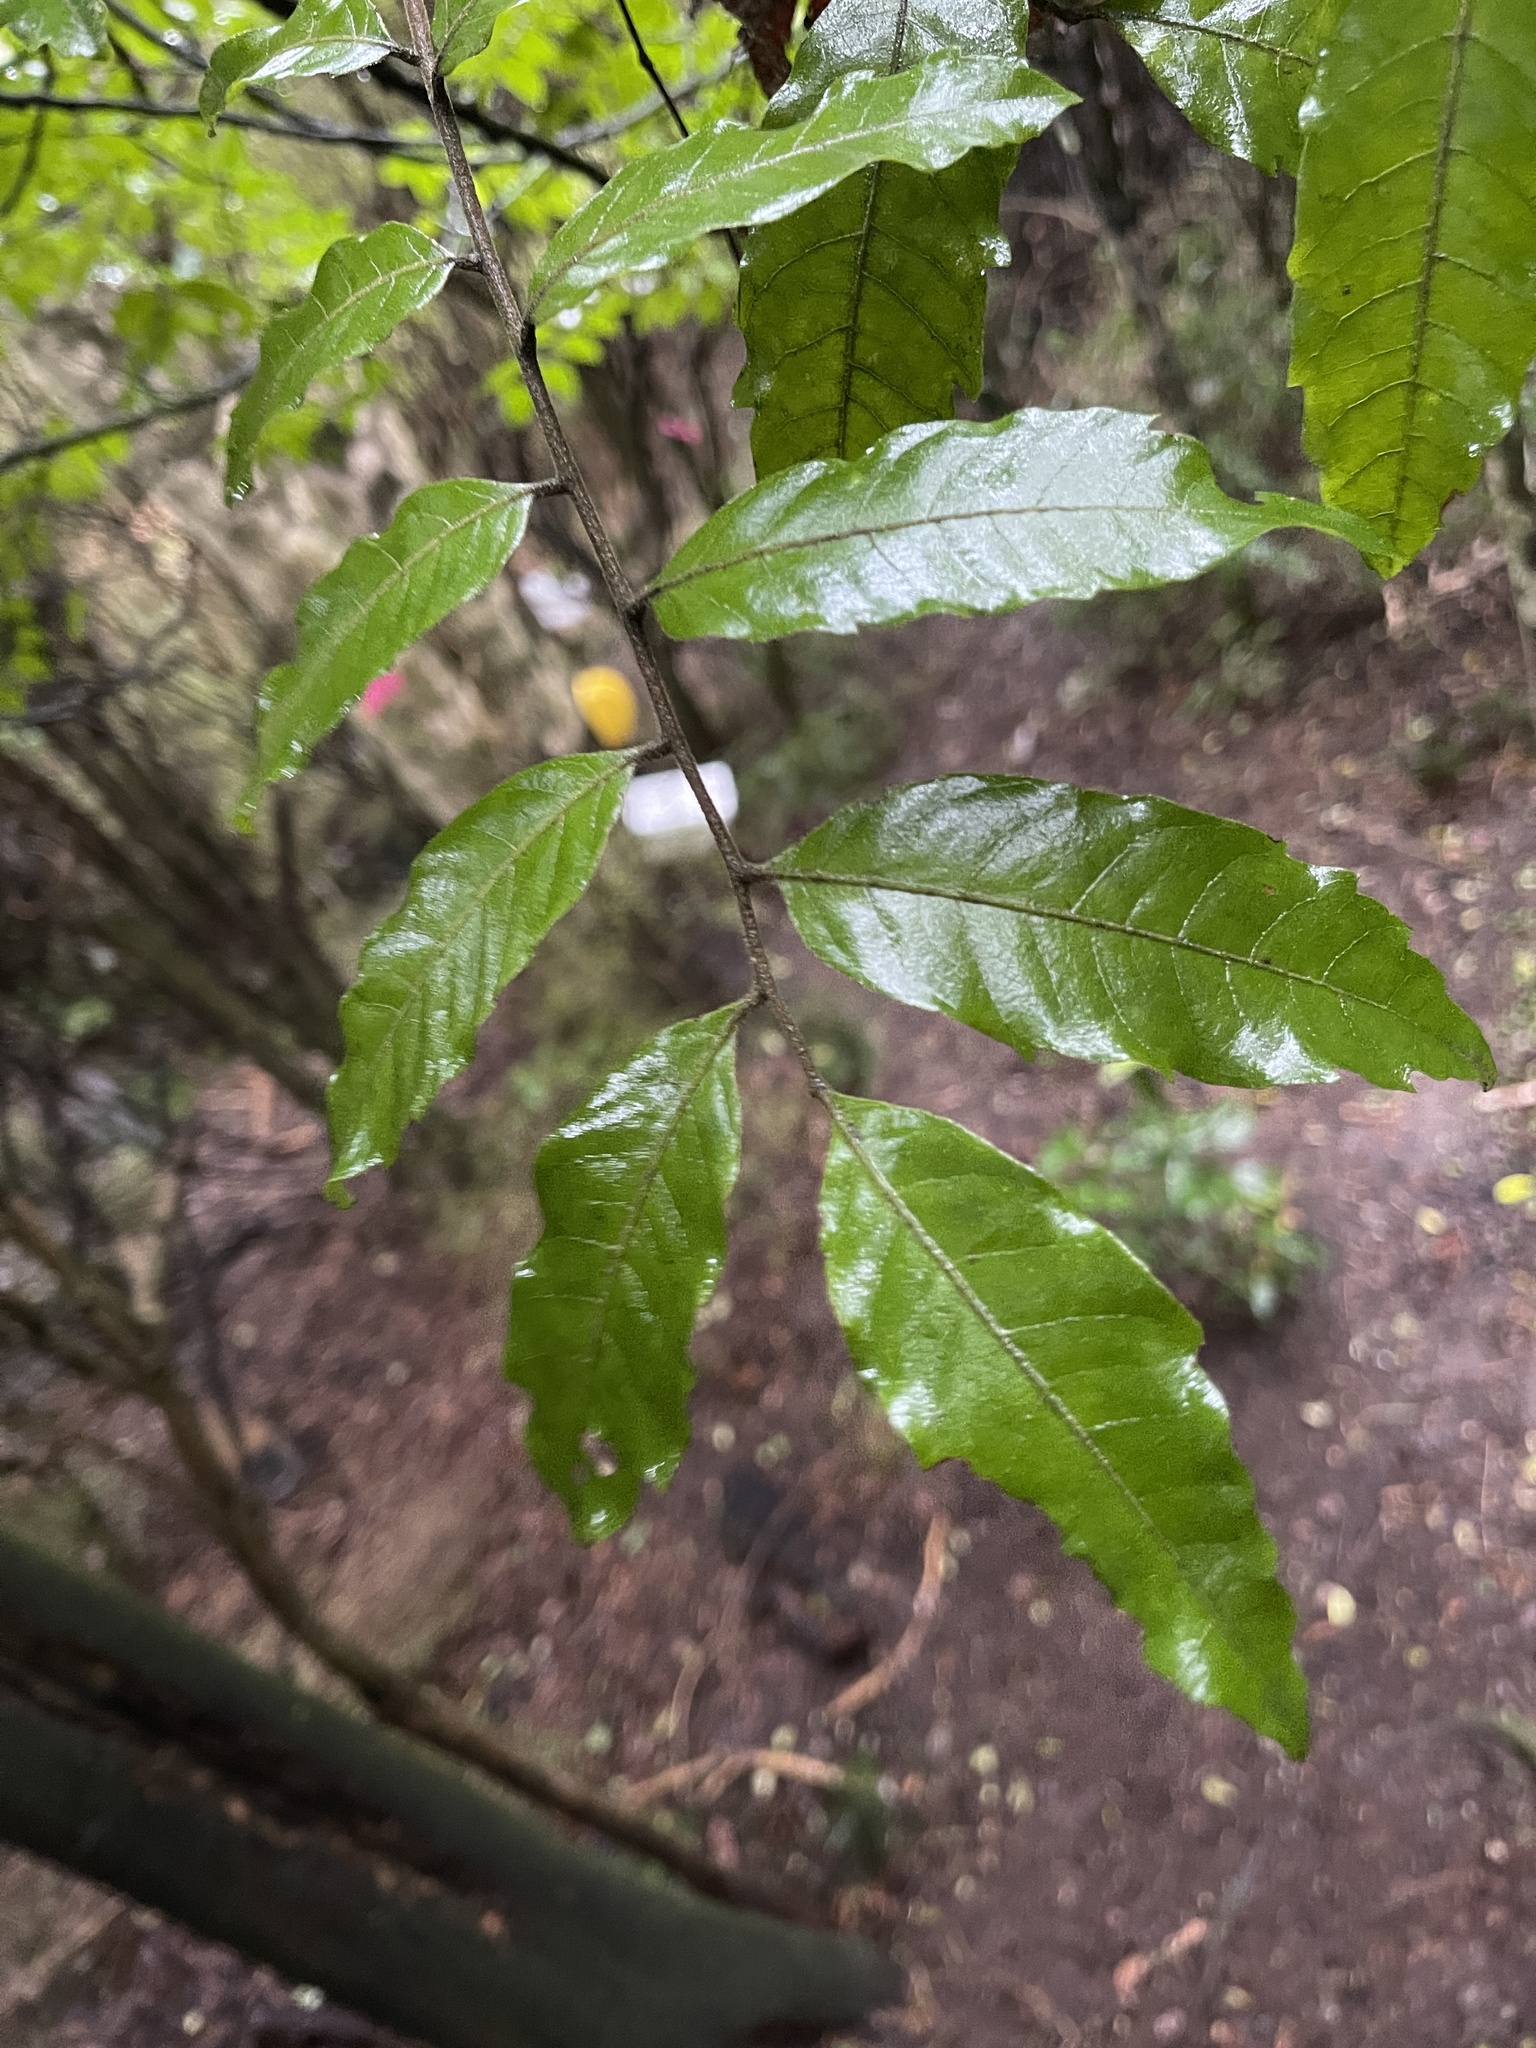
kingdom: Plantae
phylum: Tracheophyta
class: Magnoliopsida
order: Sapindales
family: Sapindaceae
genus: Alectryon
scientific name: Alectryon excelsus
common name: Three kings titoki
